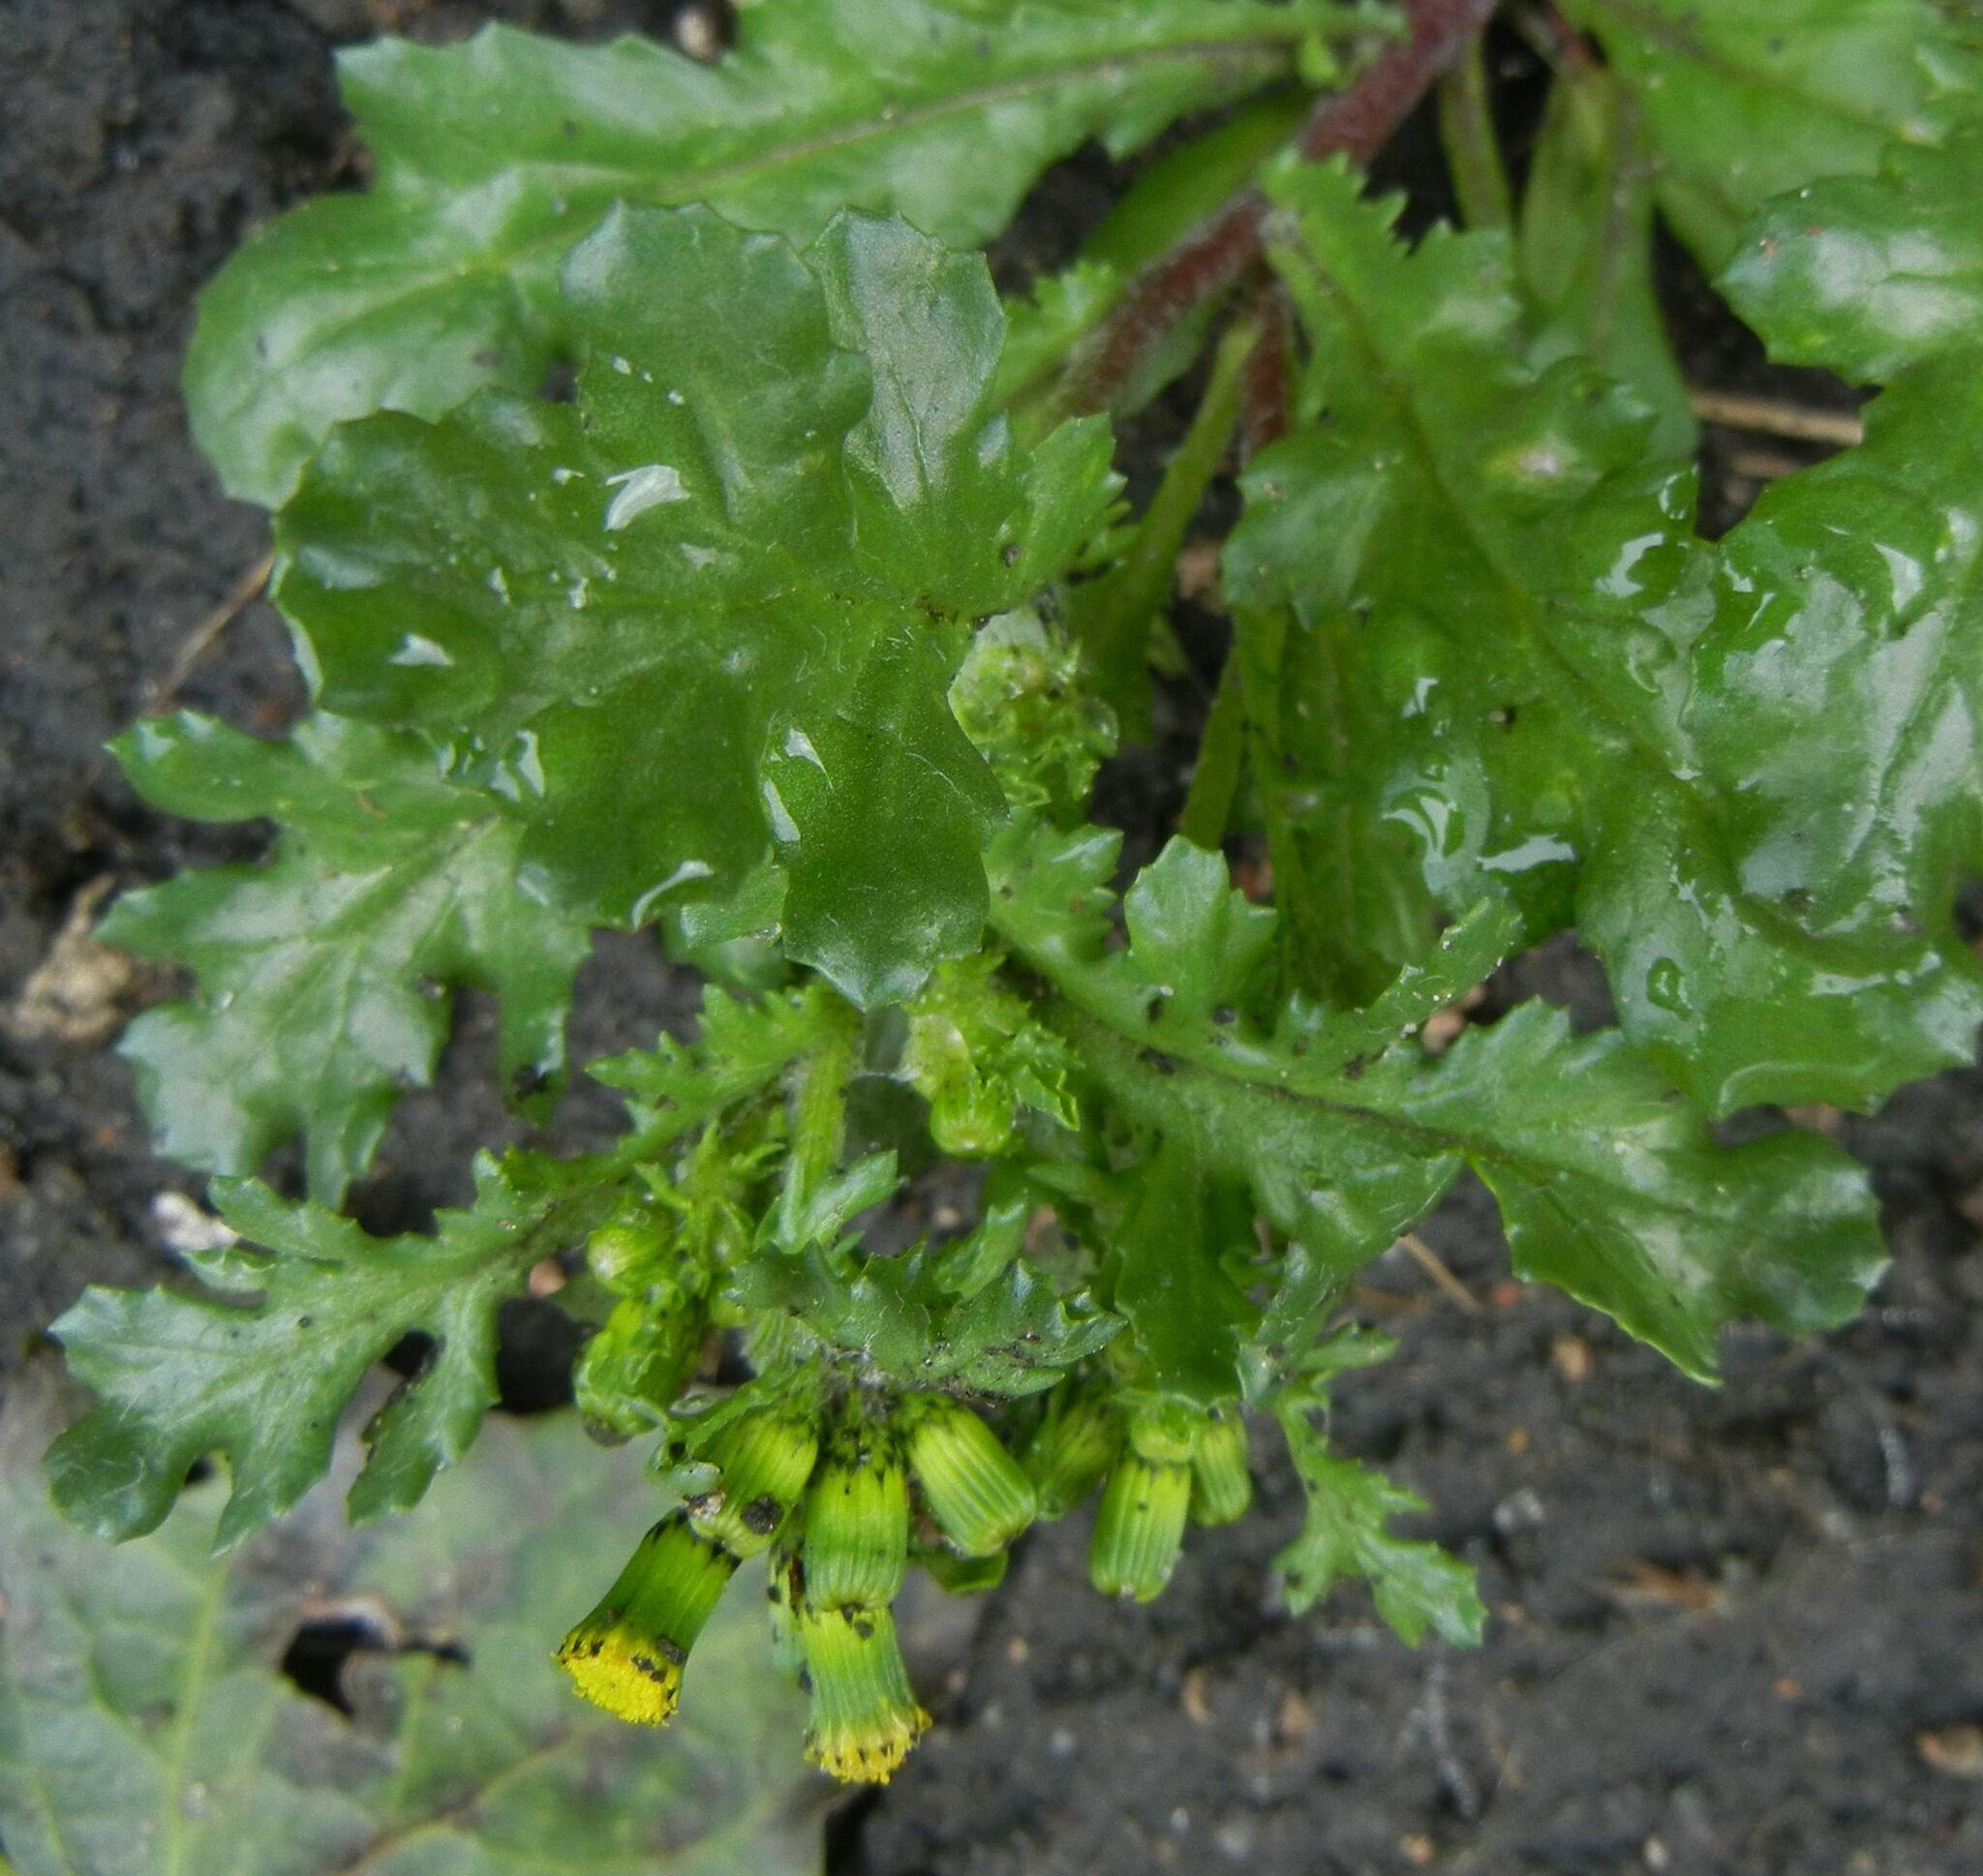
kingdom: Plantae
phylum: Tracheophyta
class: Magnoliopsida
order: Asterales
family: Asteraceae
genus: Senecio
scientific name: Senecio vulgaris
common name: Old-man-in-the-spring
